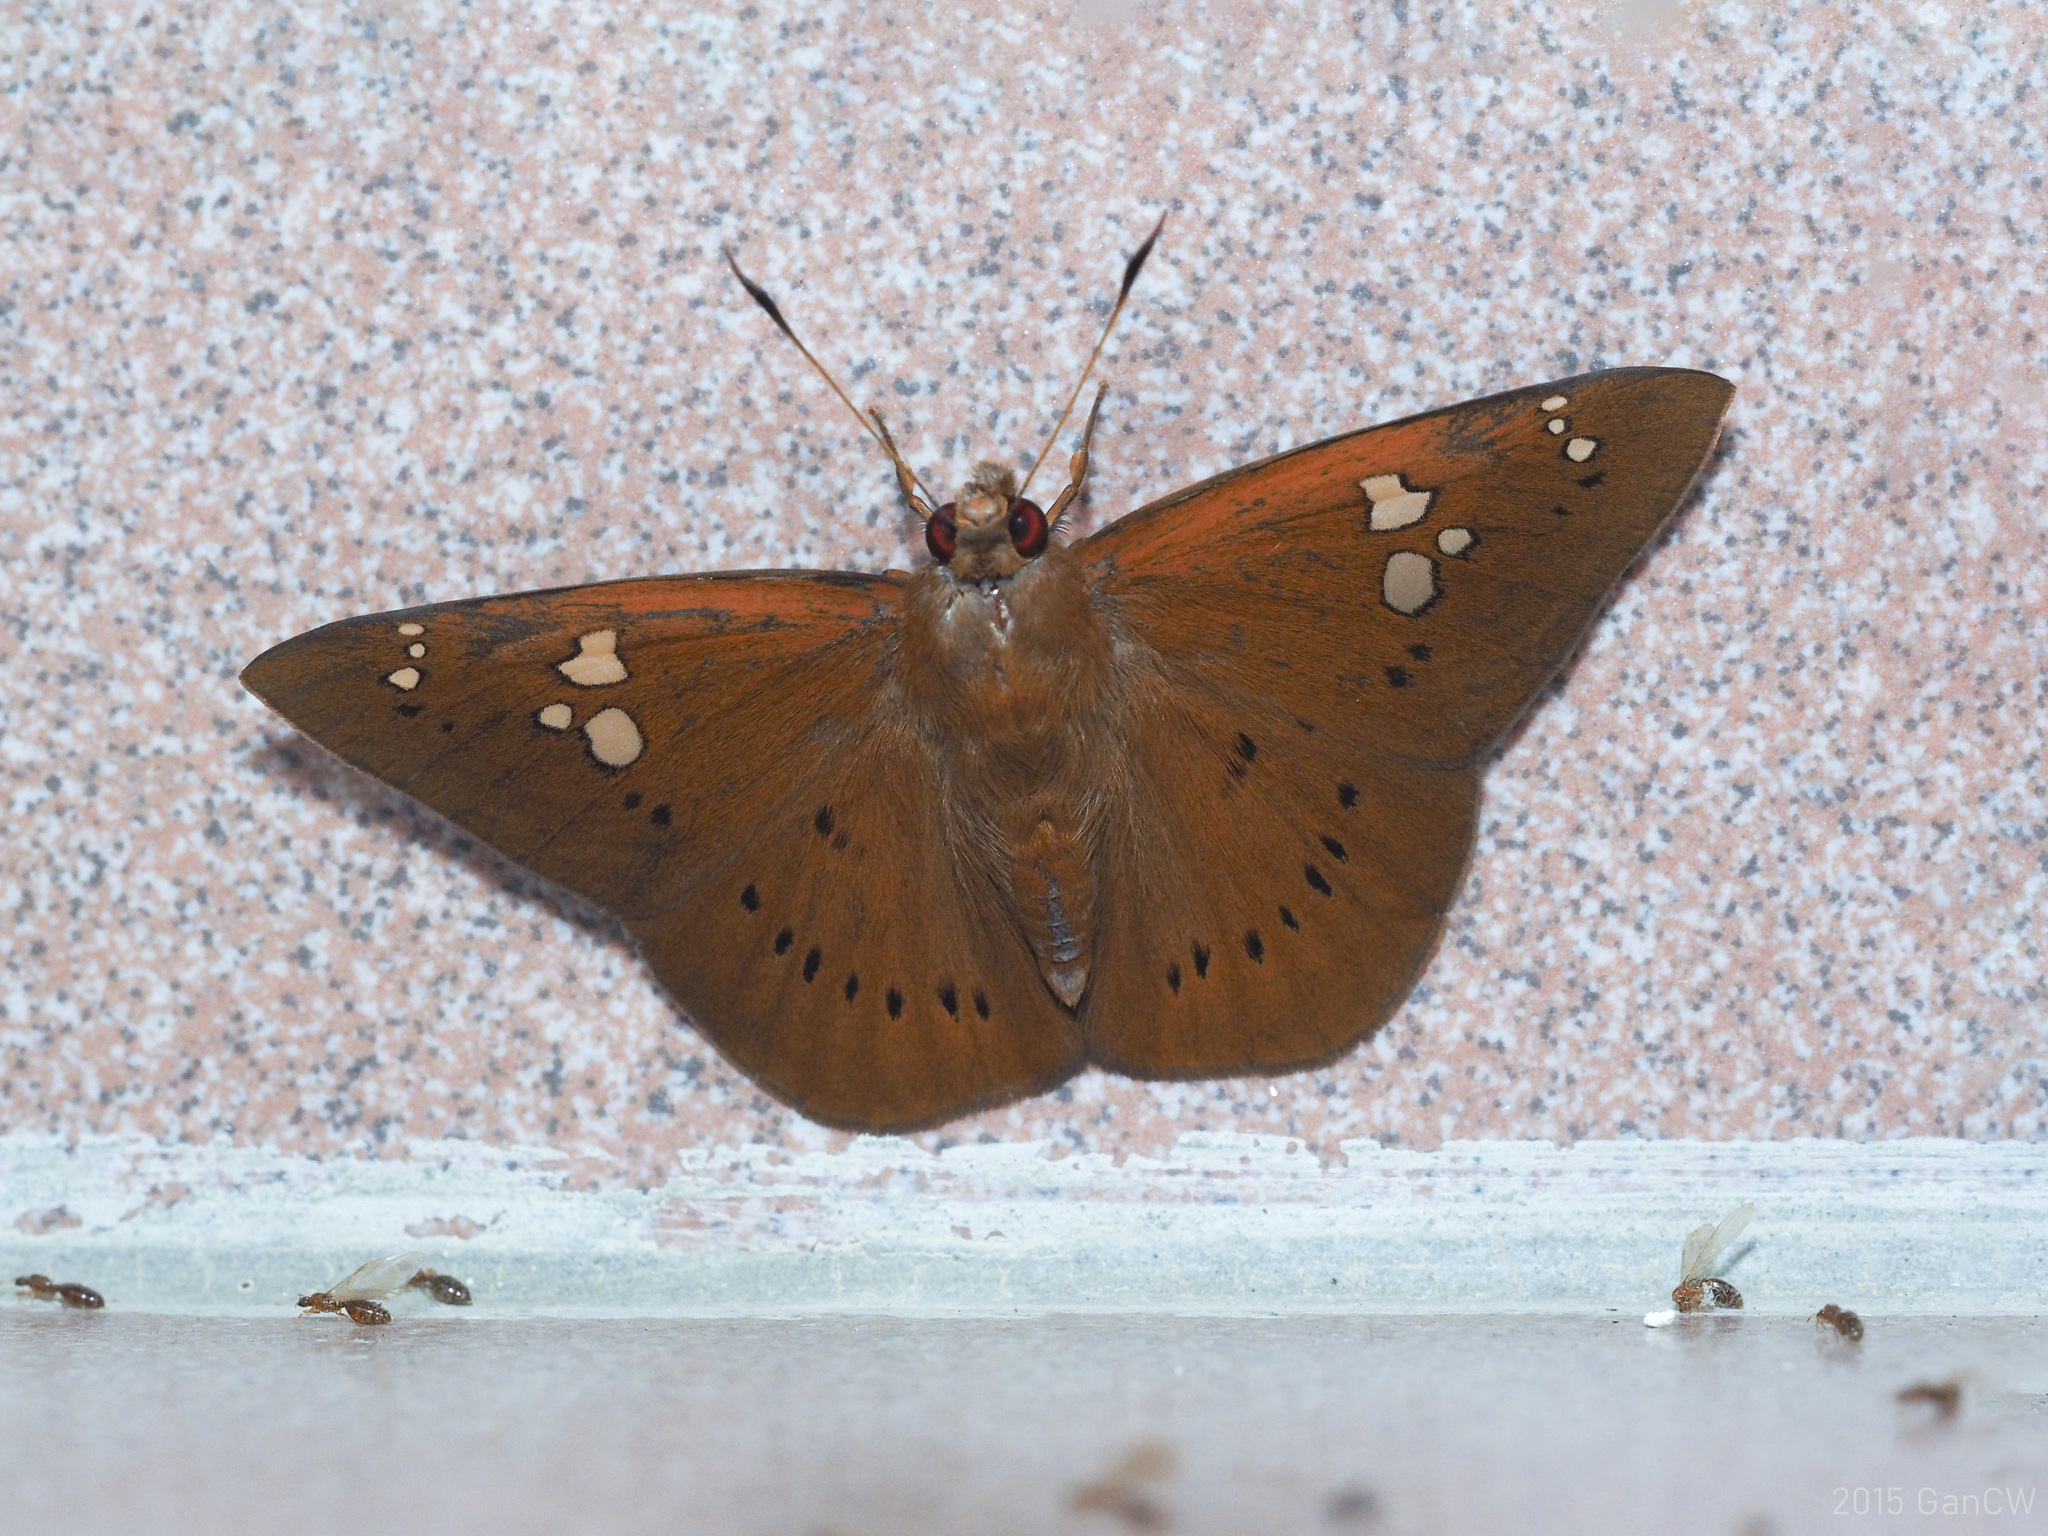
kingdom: Animalia
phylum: Arthropoda
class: Insecta
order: Lepidoptera
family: Hesperiidae
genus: Capila
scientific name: Capila phanaeus
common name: Fulvous dawnfly
